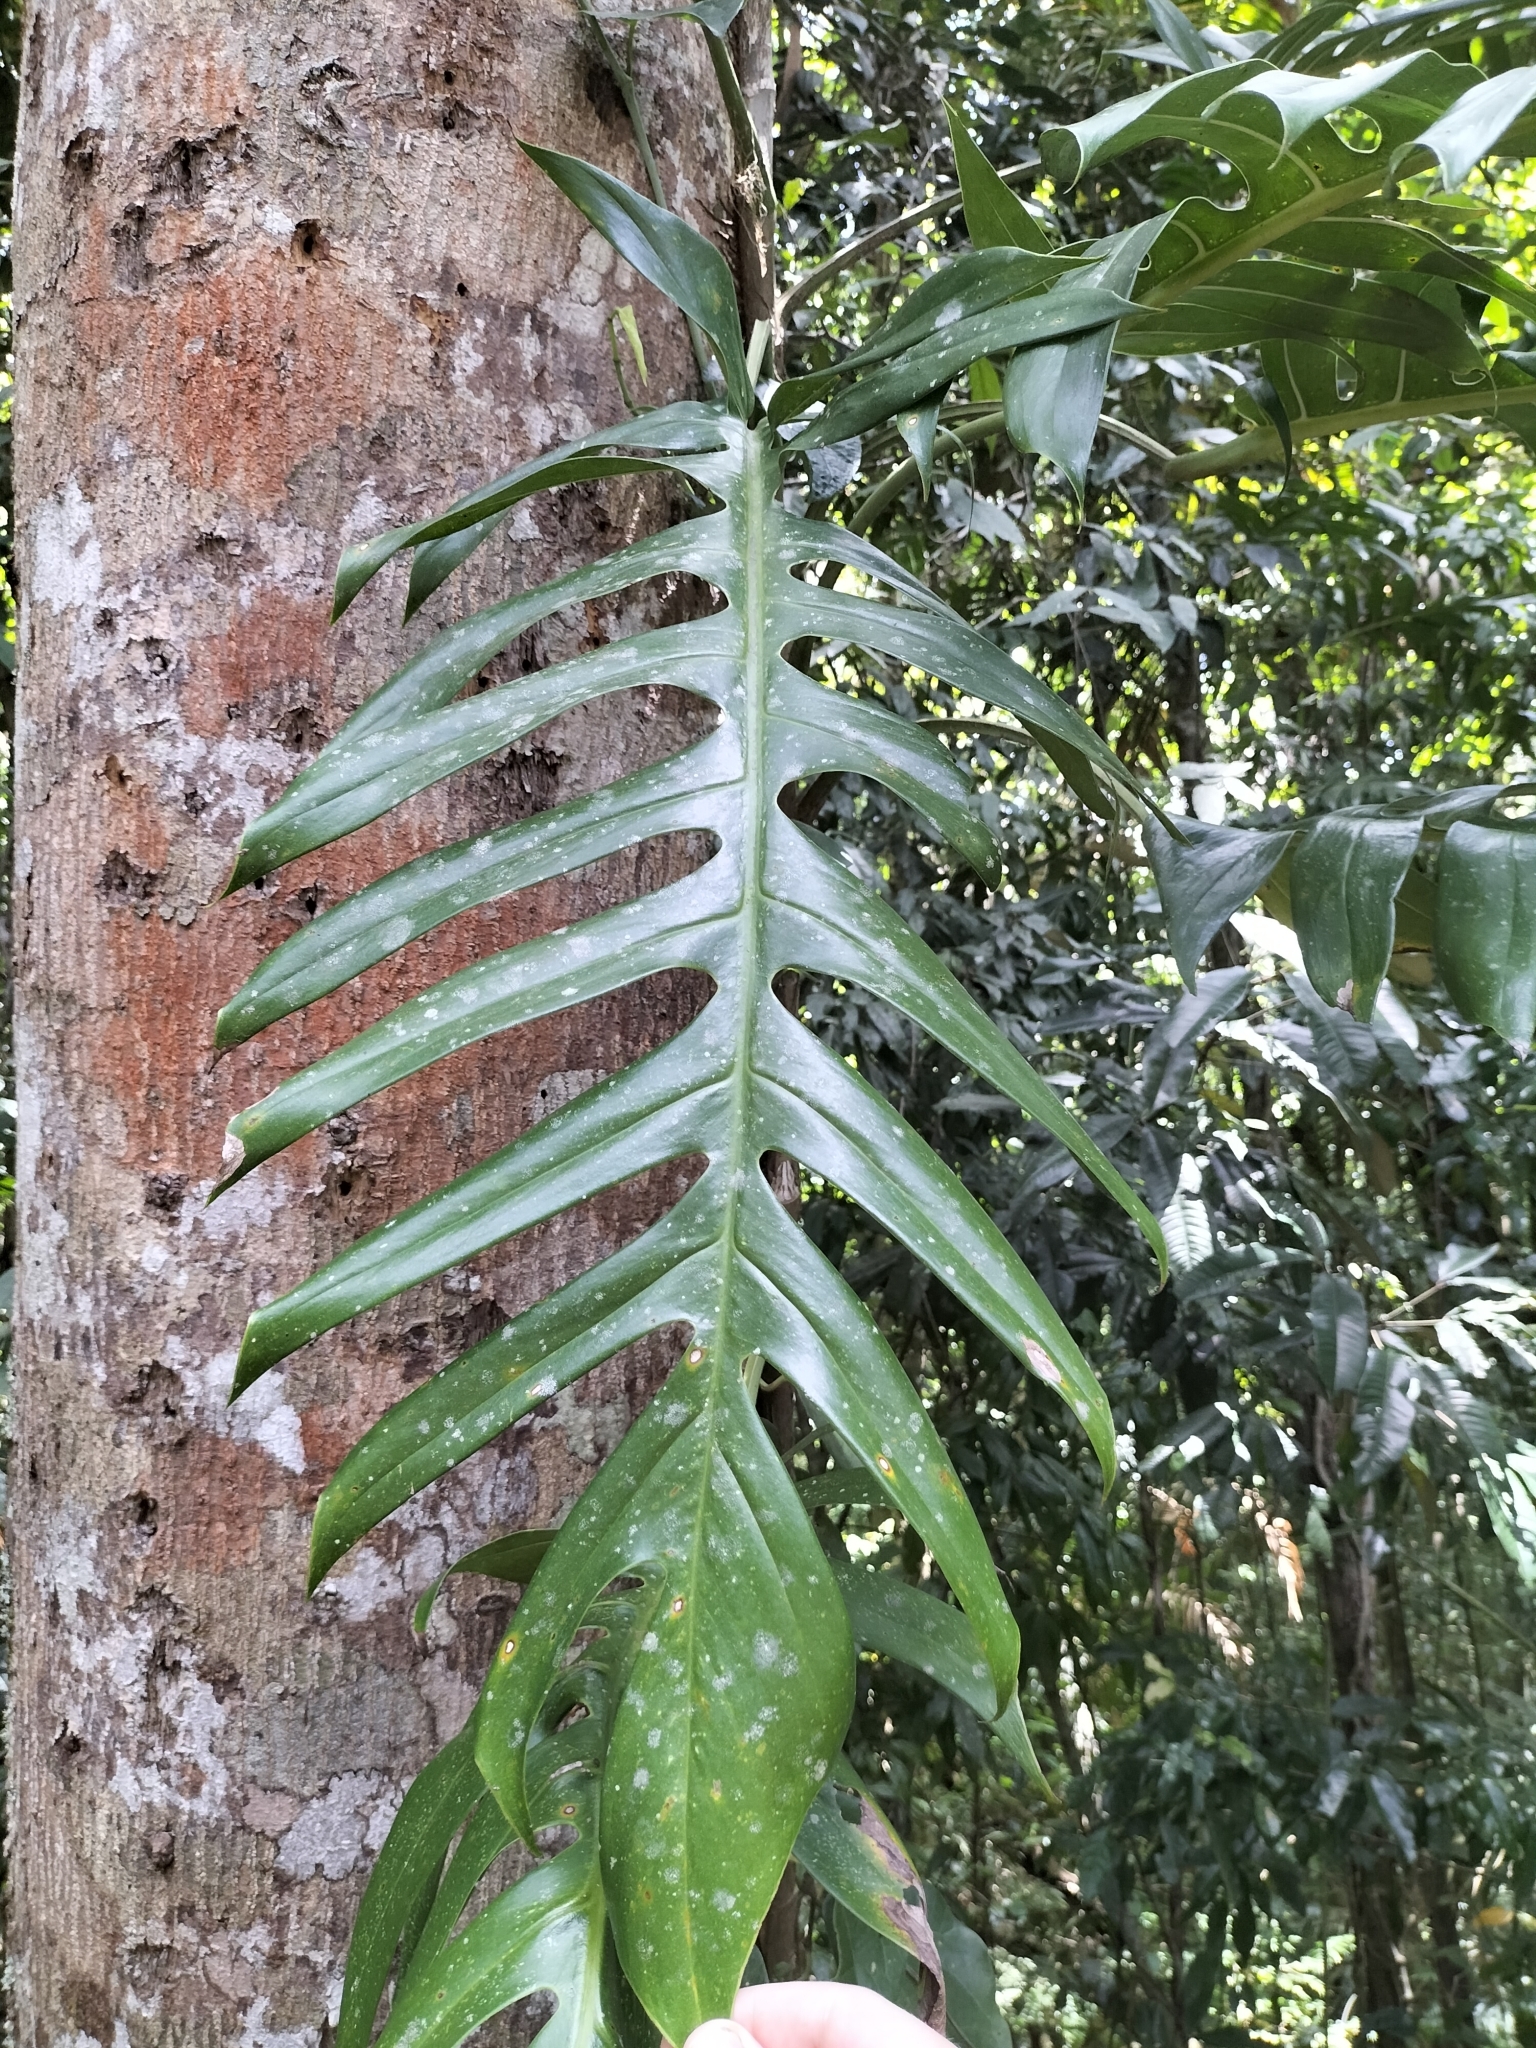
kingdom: Plantae
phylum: Tracheophyta
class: Liliopsida
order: Alismatales
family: Araceae
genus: Epipremnum
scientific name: Epipremnum pinnatum
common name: Centipede tongavine
